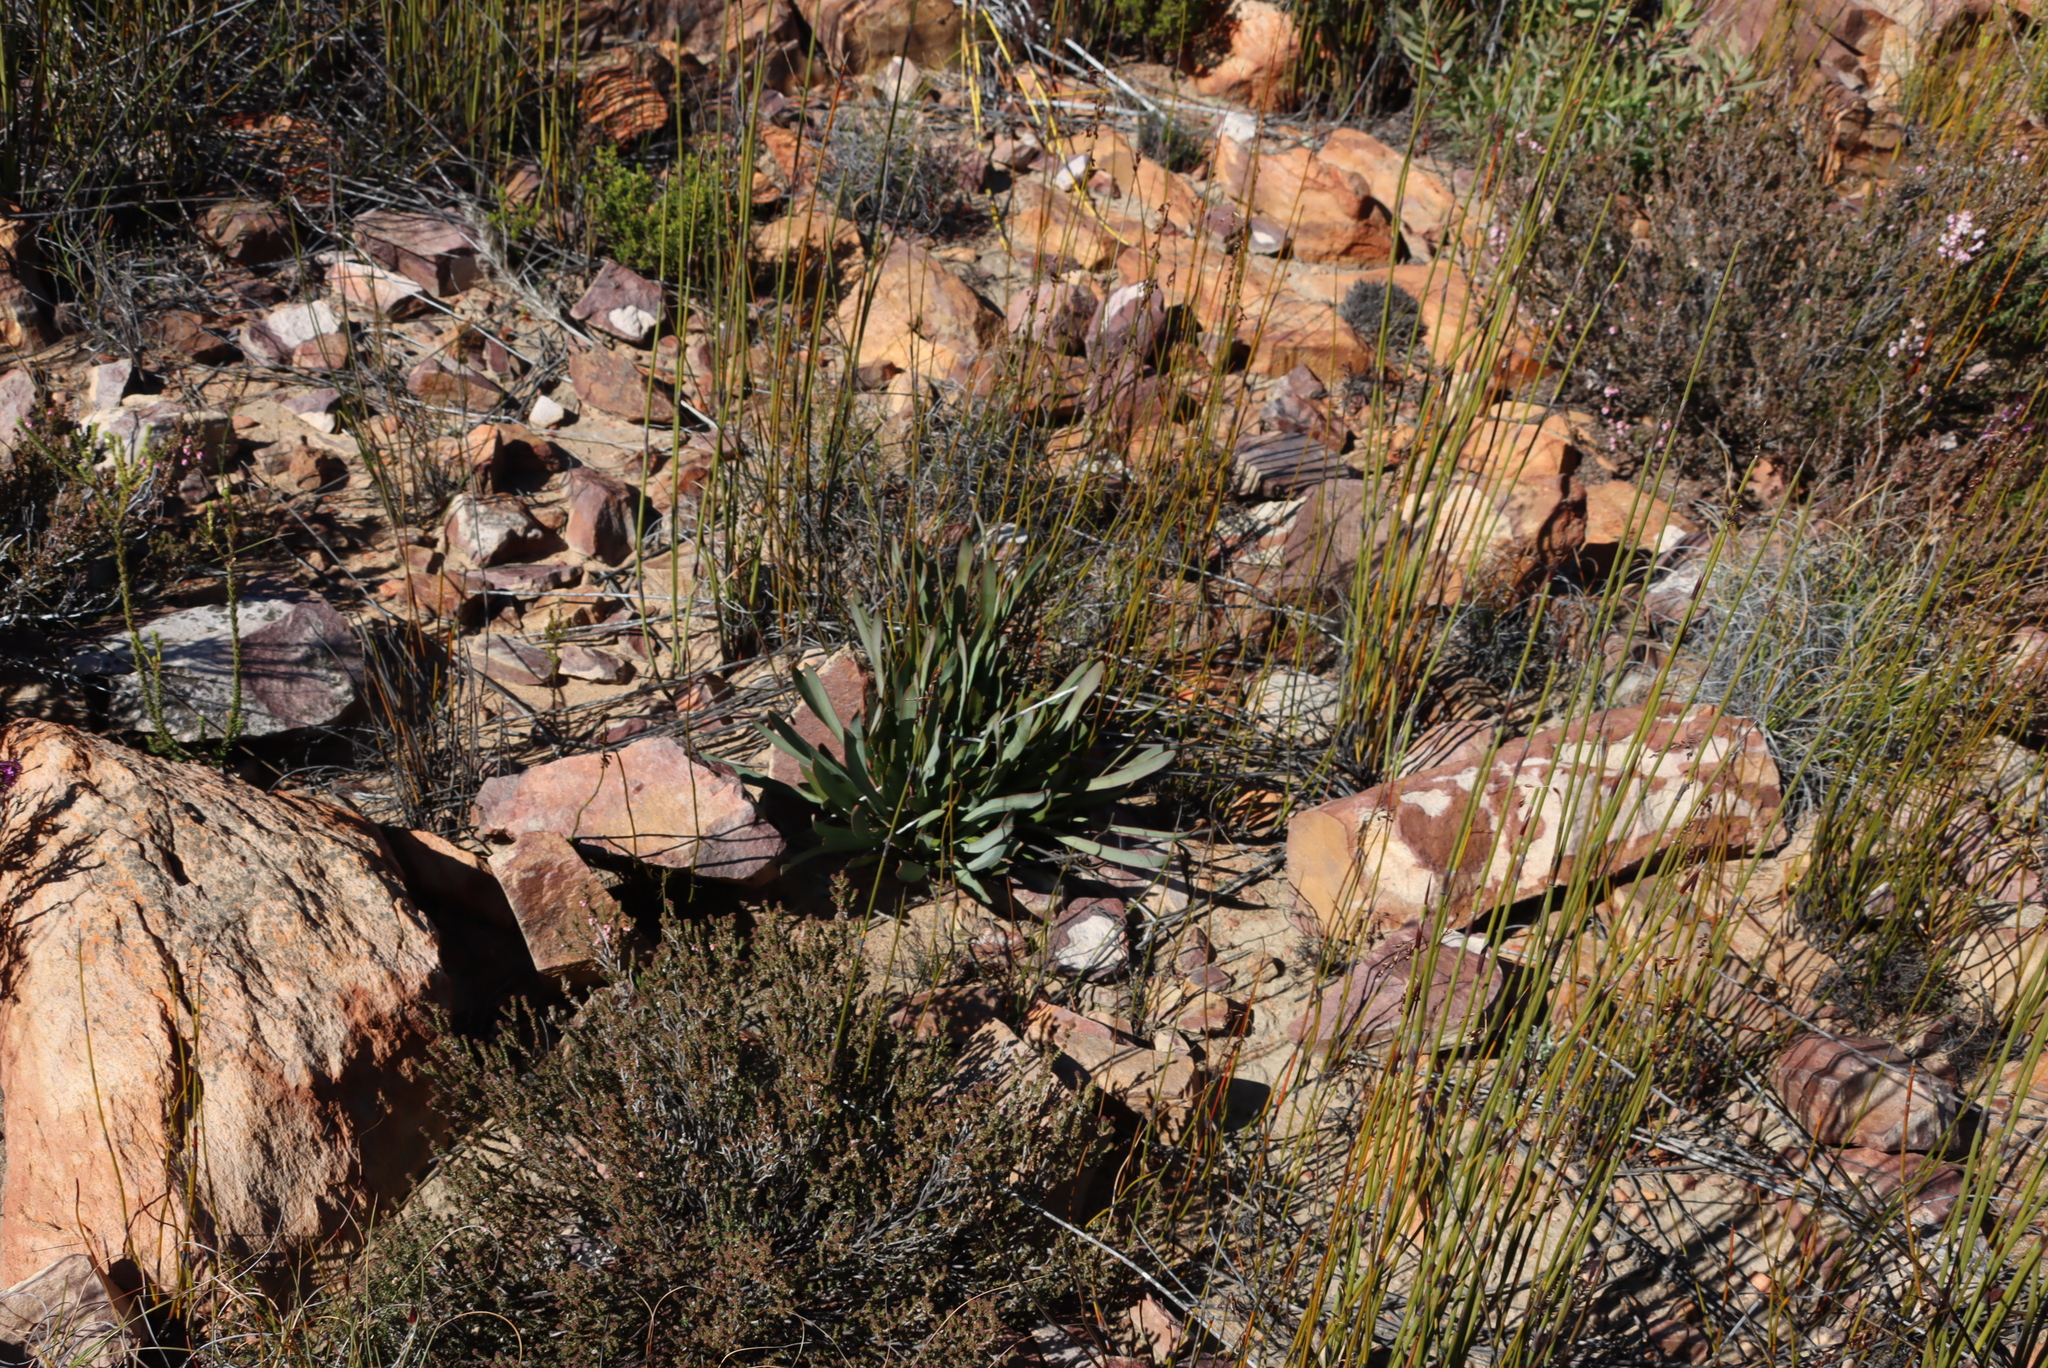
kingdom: Plantae
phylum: Tracheophyta
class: Magnoliopsida
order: Proteales
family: Proteaceae
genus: Protea
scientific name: Protea vogtsiae
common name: Kouga sugarbush
